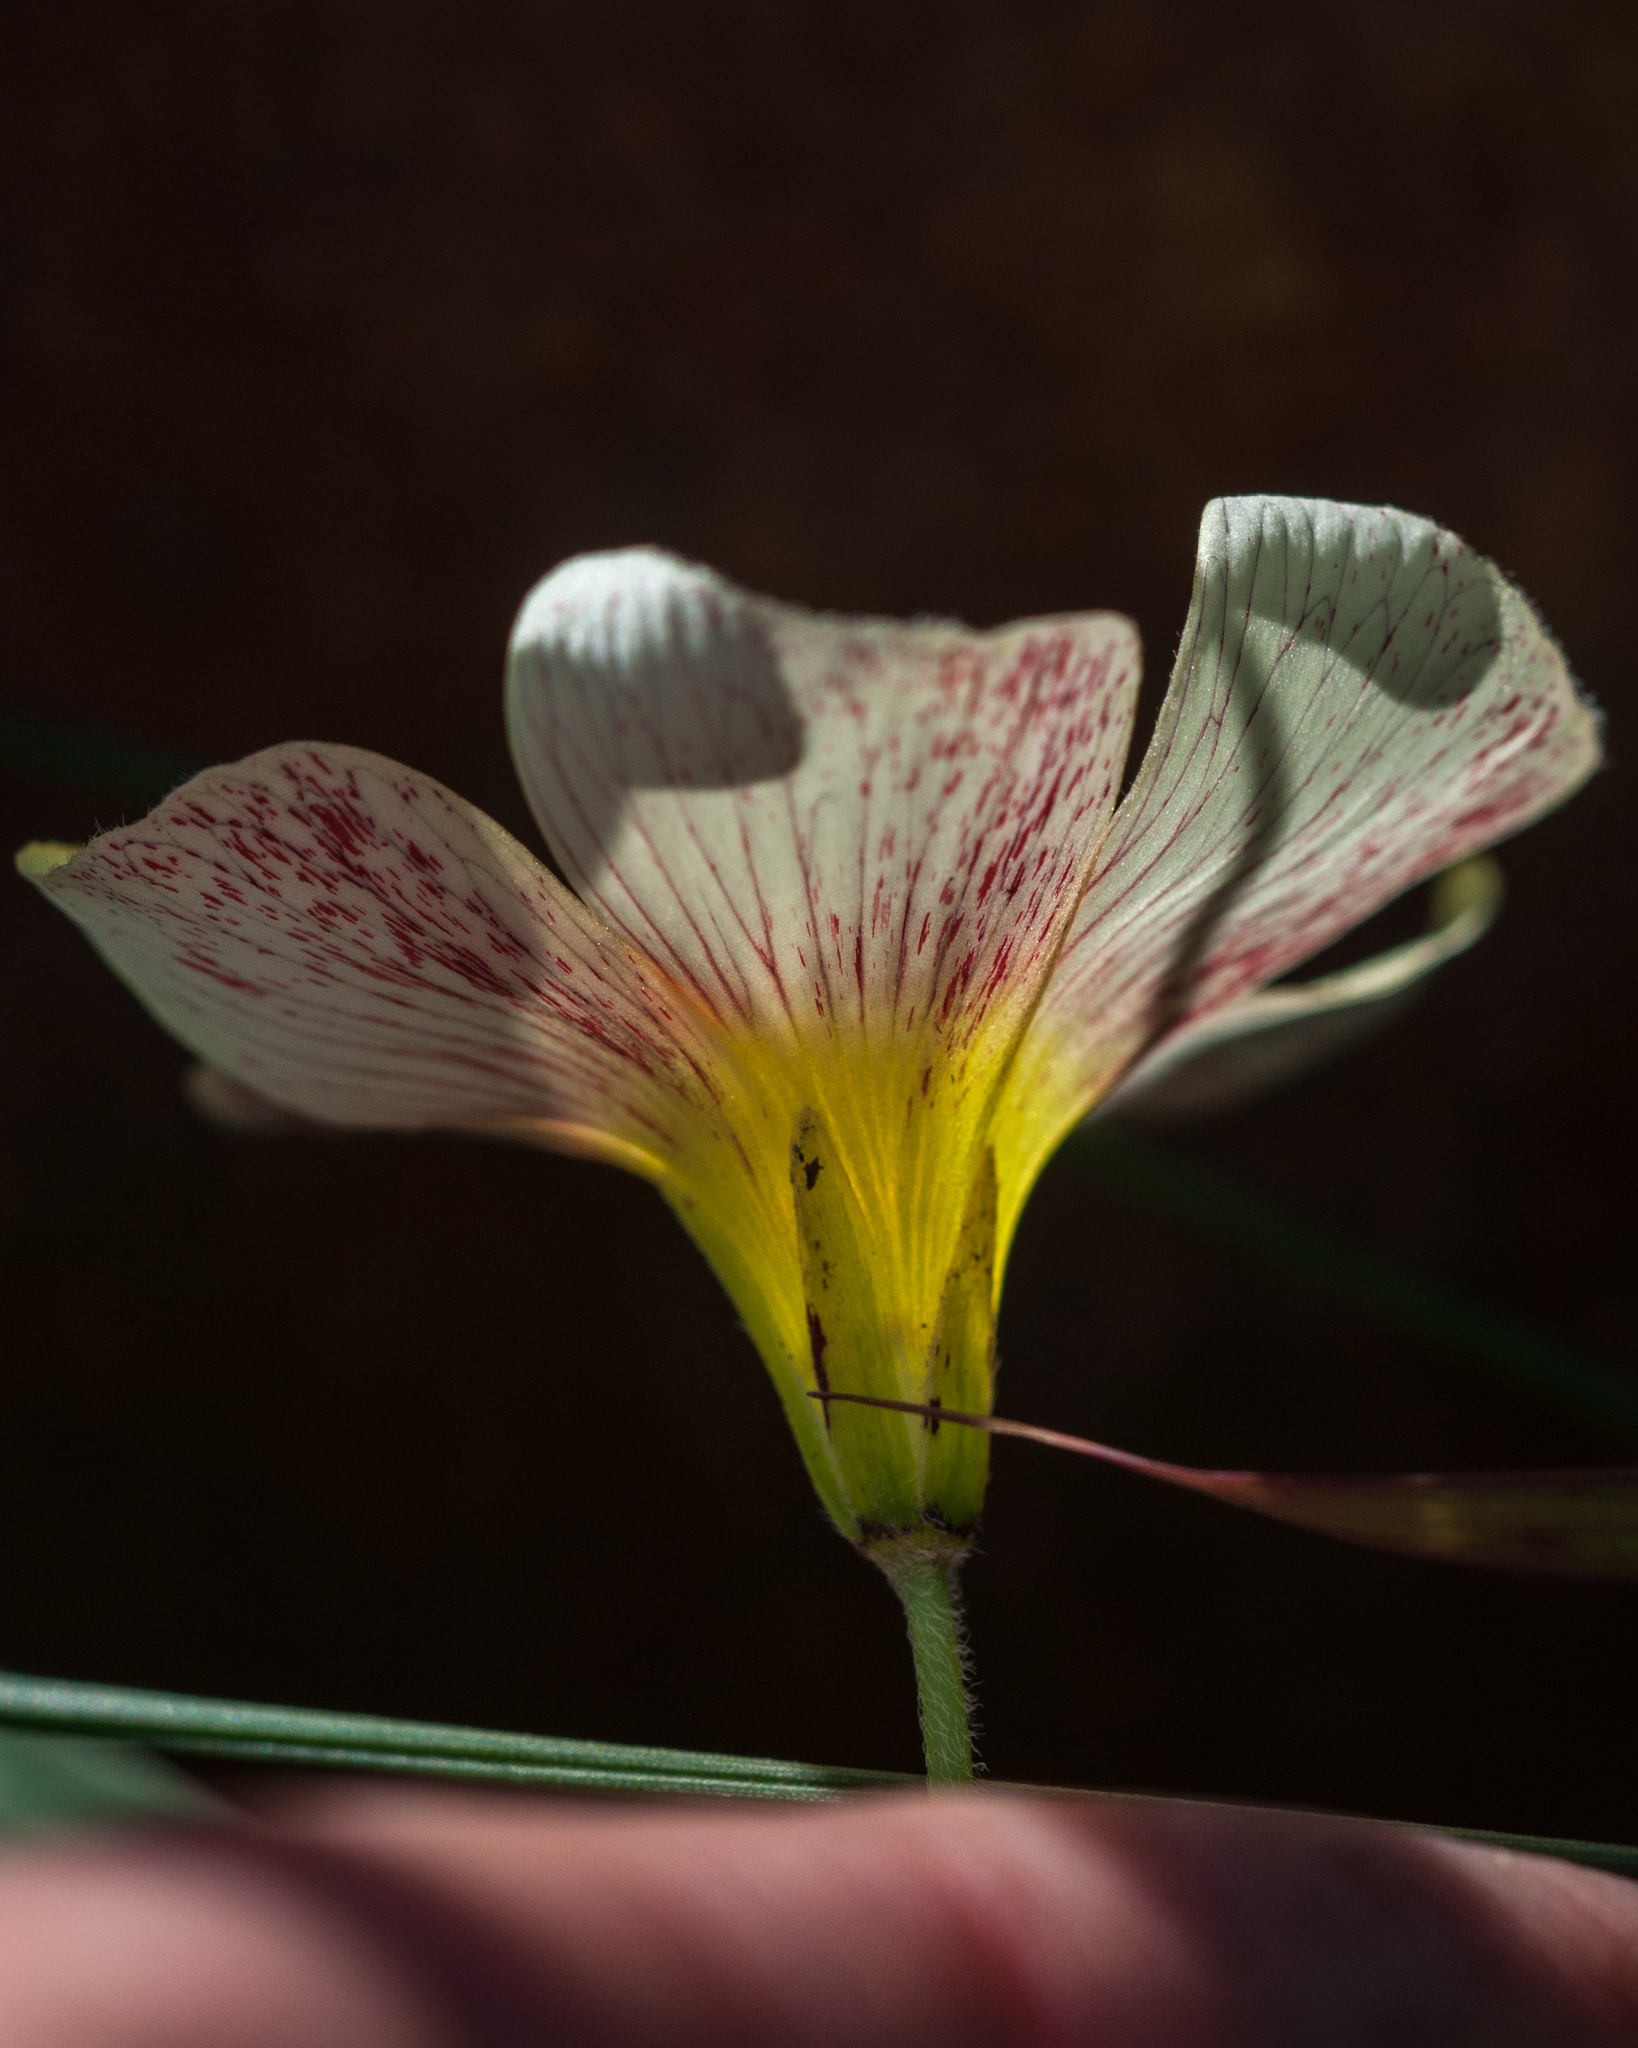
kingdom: Plantae
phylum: Tracheophyta
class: Magnoliopsida
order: Oxalidales
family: Oxalidaceae
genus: Oxalis
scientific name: Oxalis obtusa
